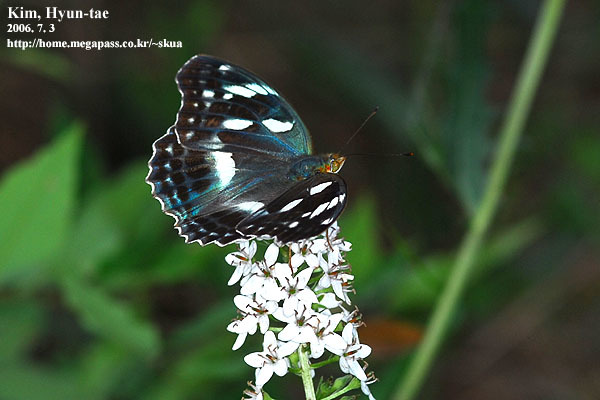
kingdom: Animalia
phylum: Arthropoda
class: Insecta
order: Lepidoptera
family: Nymphalidae
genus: Damora
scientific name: Damora sagana
